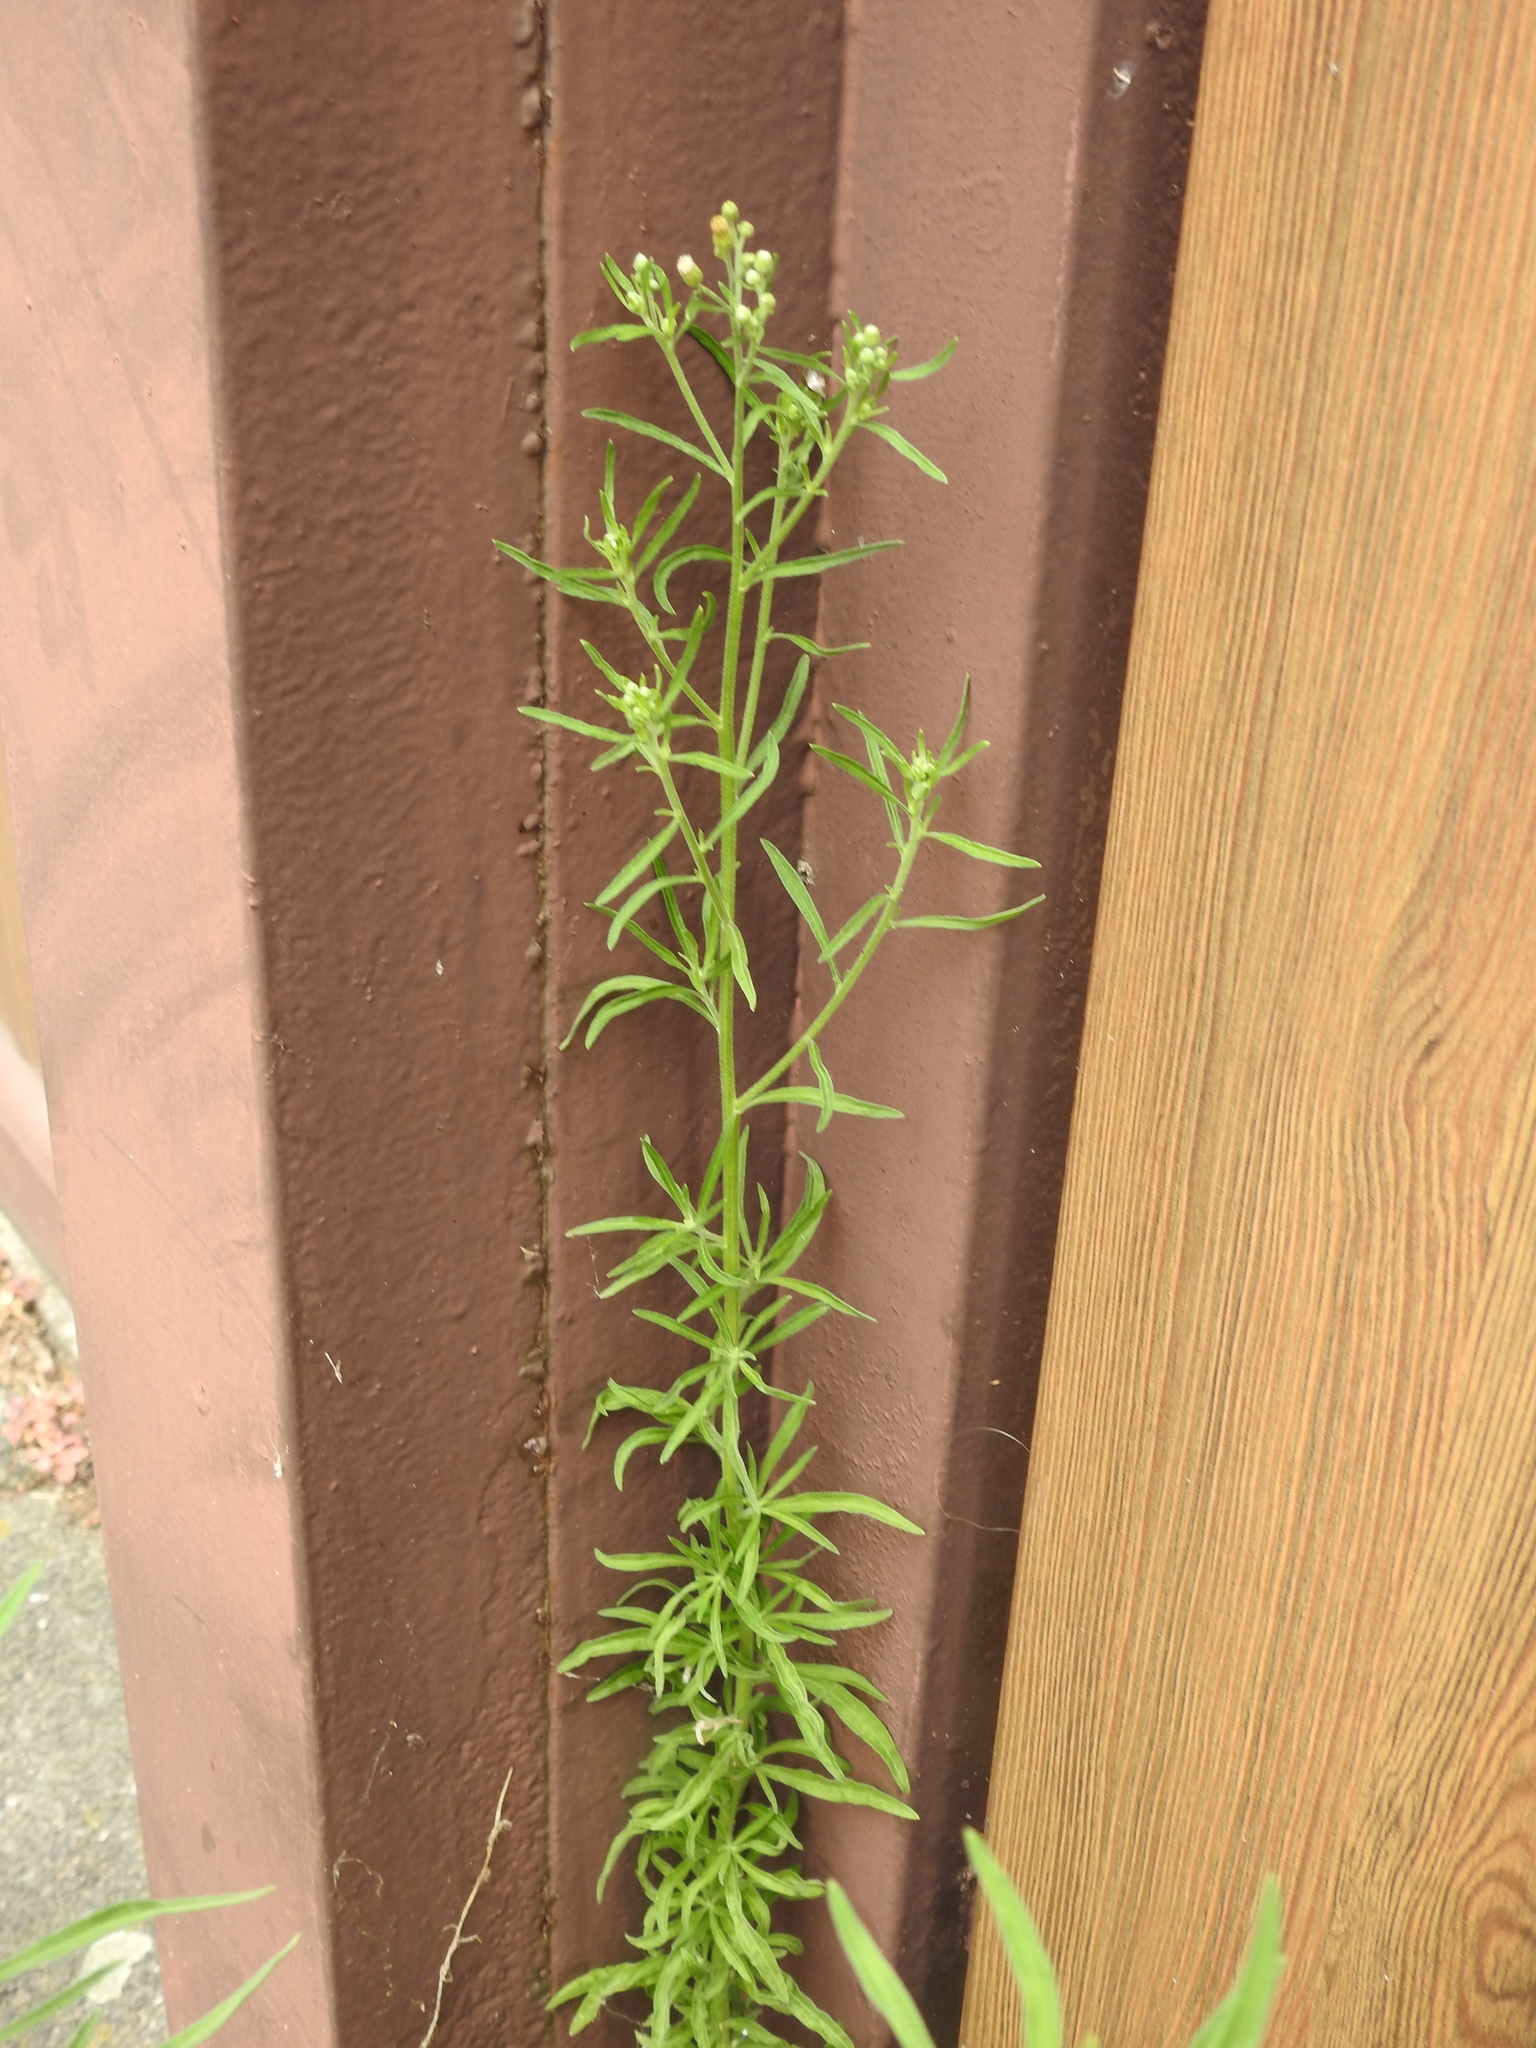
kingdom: Plantae
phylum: Tracheophyta
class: Magnoliopsida
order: Asterales
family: Asteraceae
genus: Erigeron
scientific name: Erigeron canadensis
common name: Canadian fleabane
